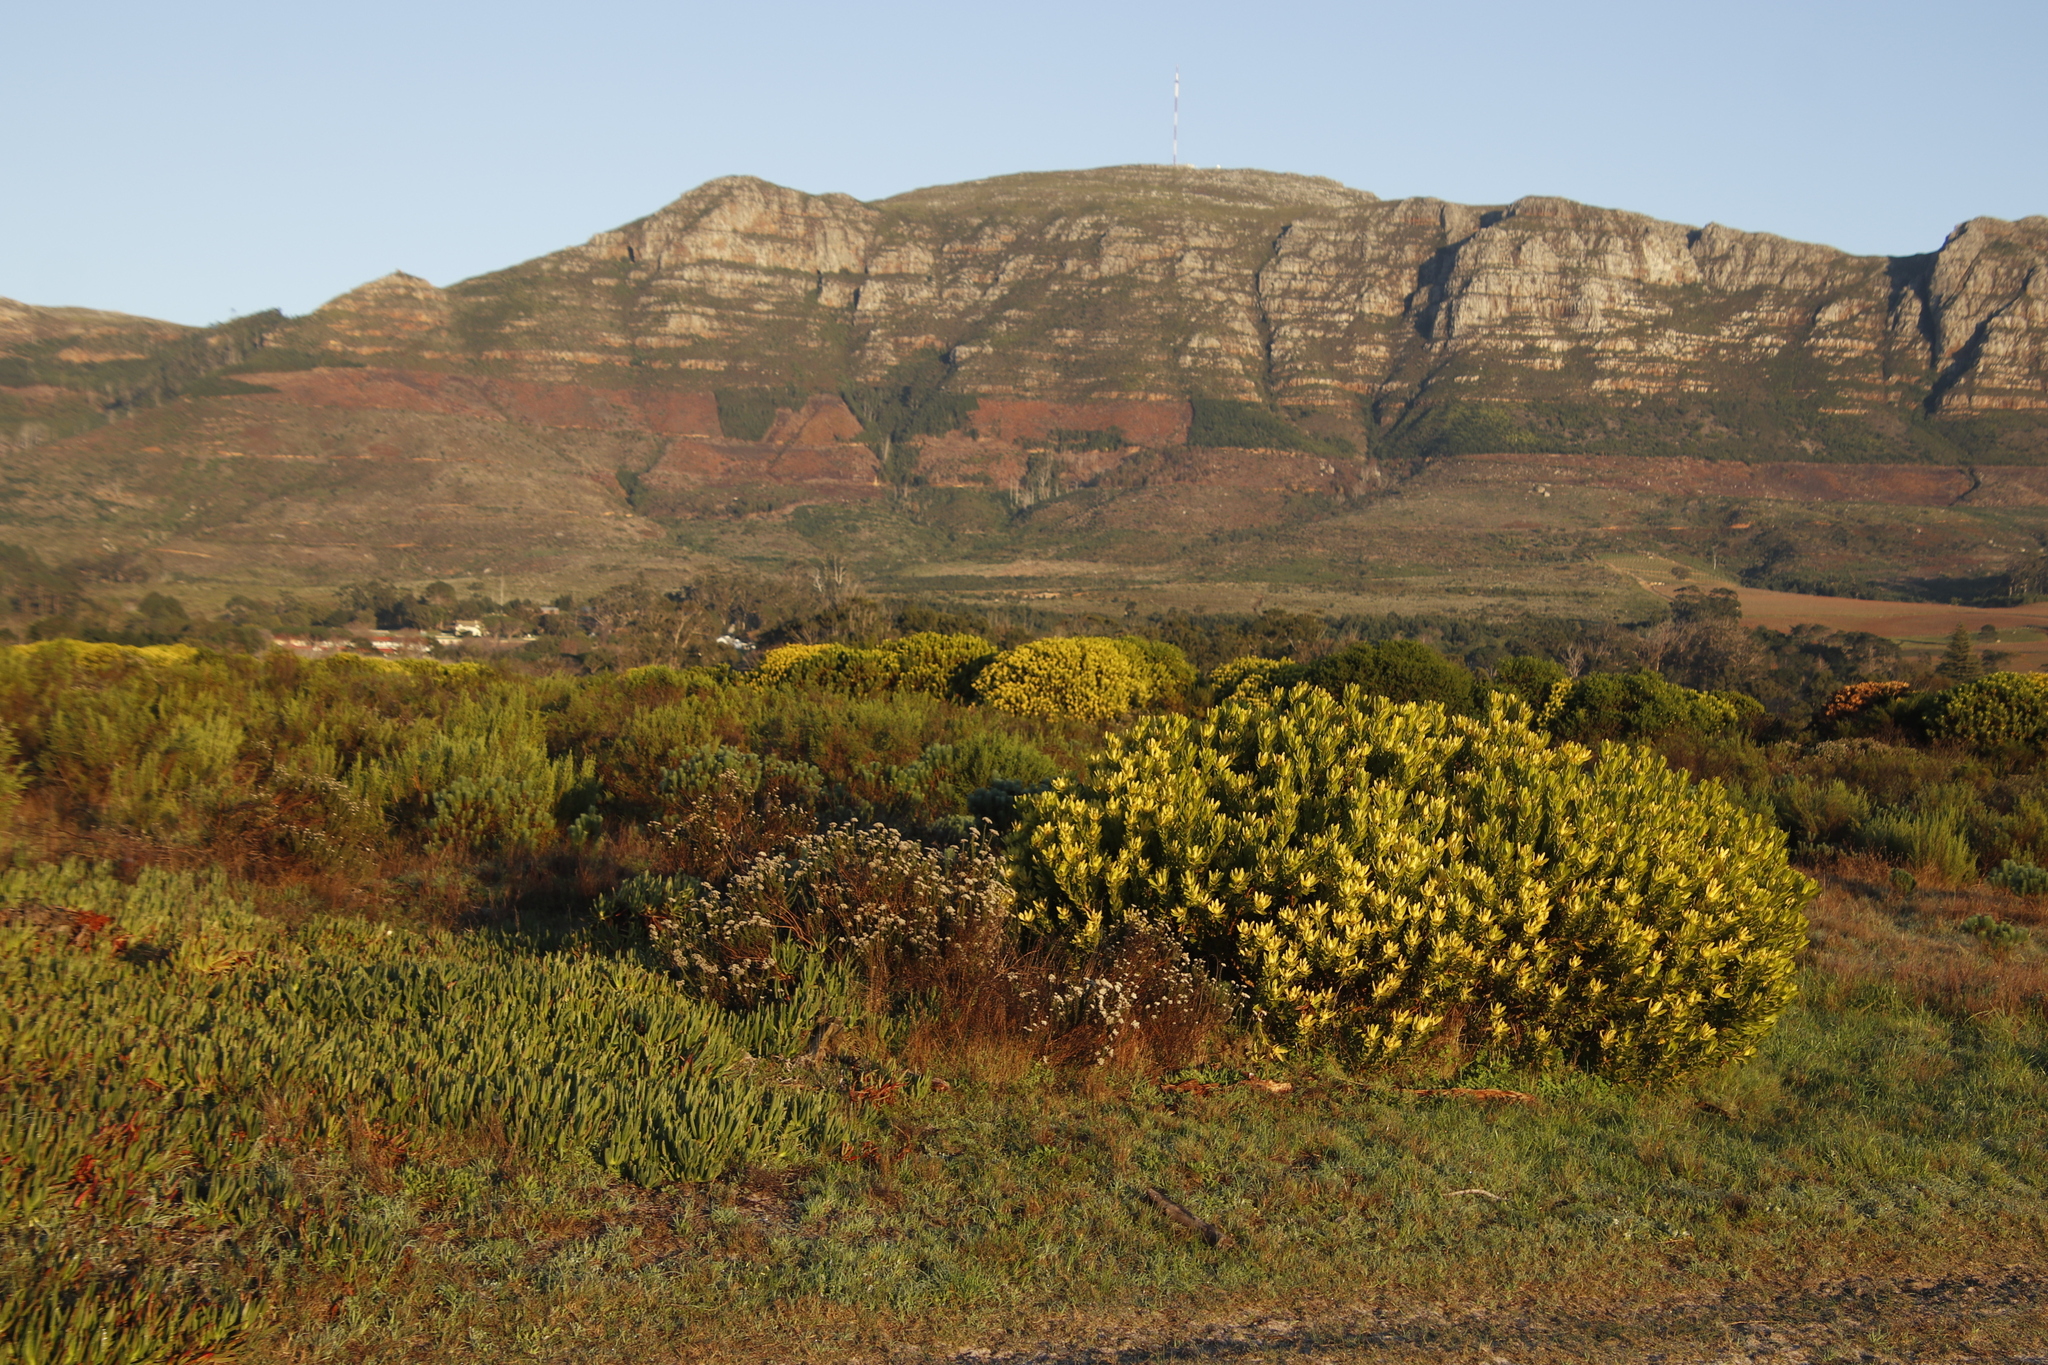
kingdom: Plantae
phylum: Tracheophyta
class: Magnoliopsida
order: Proteales
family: Proteaceae
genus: Leucadendron
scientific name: Leucadendron laureolum
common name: Golden sunshinebush
